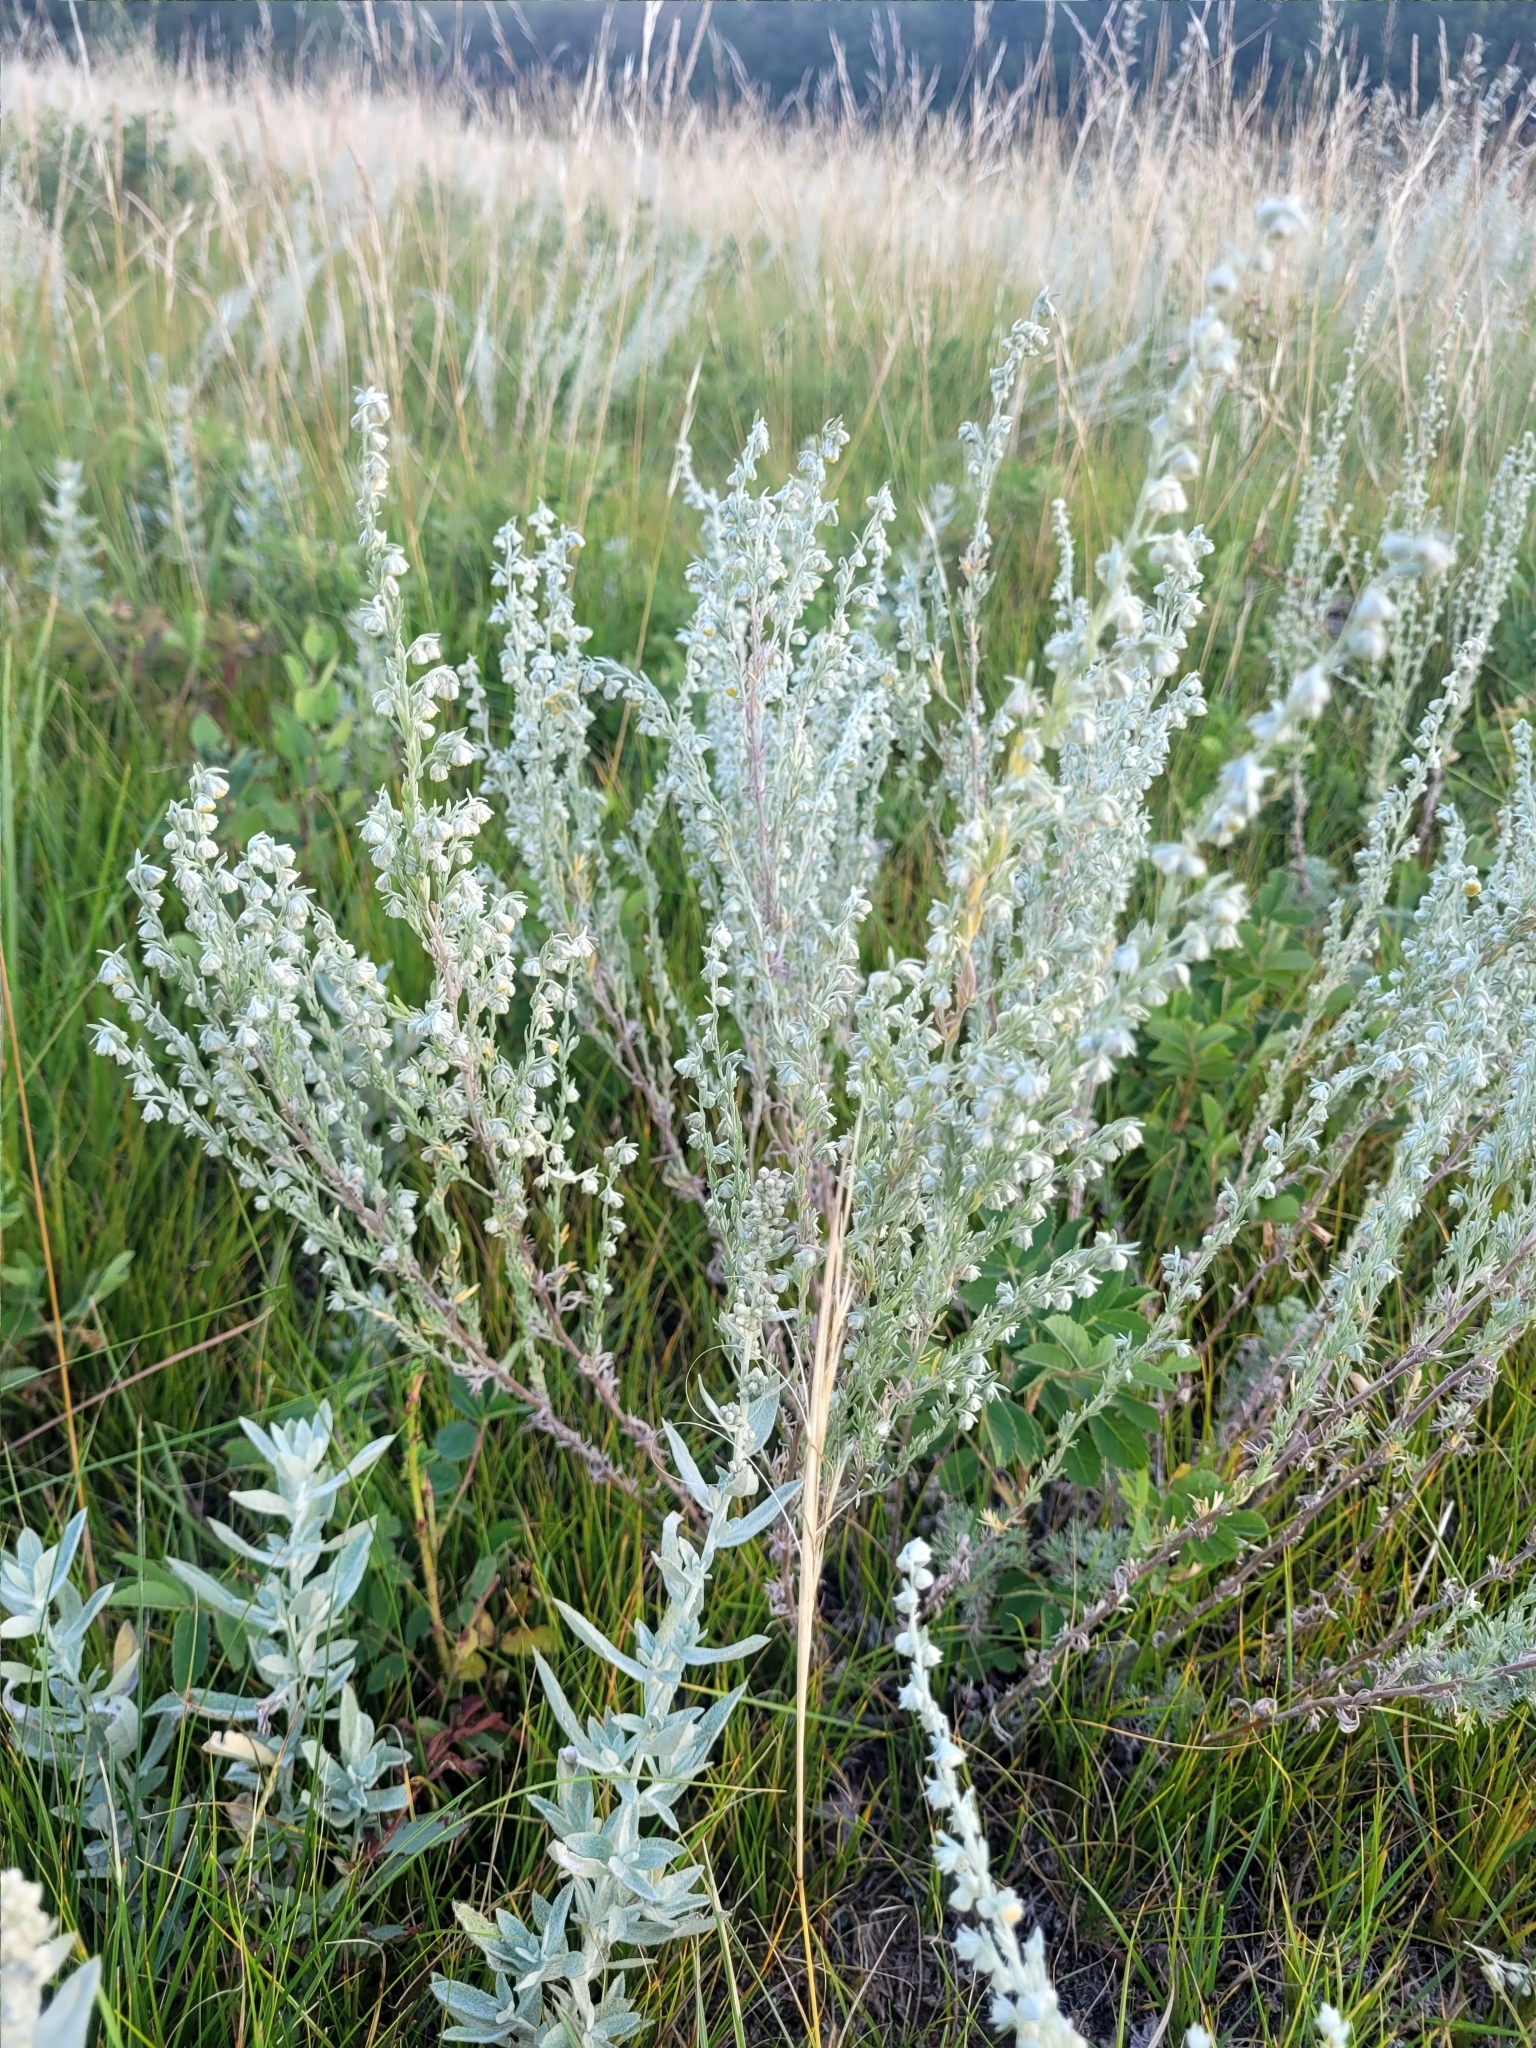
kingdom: Plantae
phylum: Tracheophyta
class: Magnoliopsida
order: Asterales
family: Asteraceae
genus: Artemisia
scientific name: Artemisia frigida
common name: Prairie sagewort
